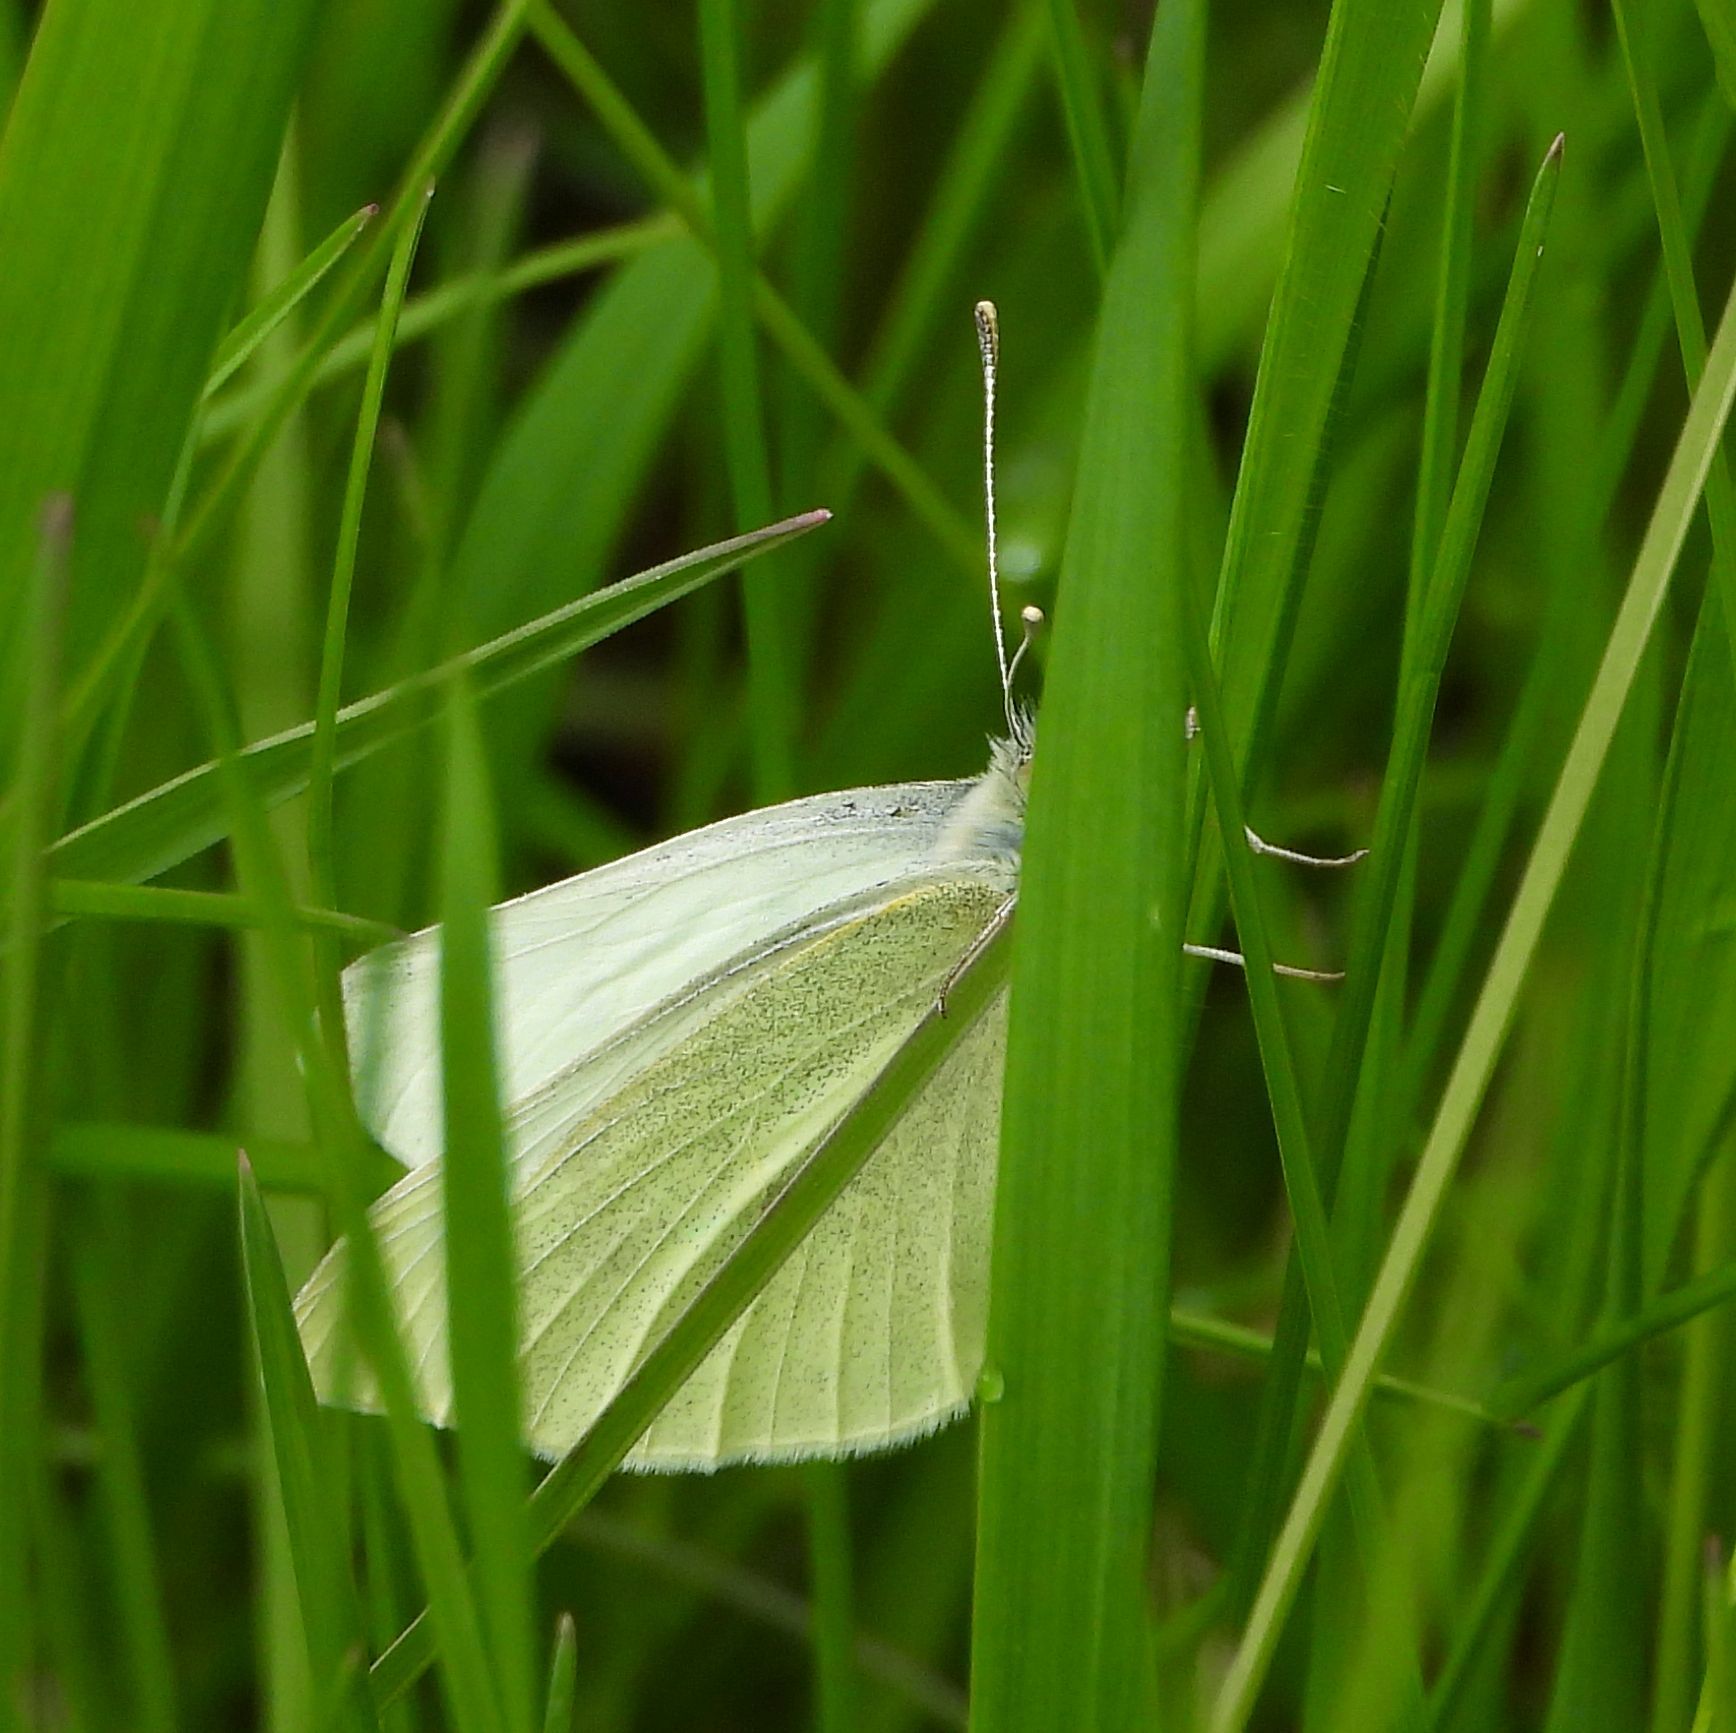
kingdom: Animalia
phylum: Arthropoda
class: Insecta
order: Lepidoptera
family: Pieridae
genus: Pieris
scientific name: Pieris rapae
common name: Small white
